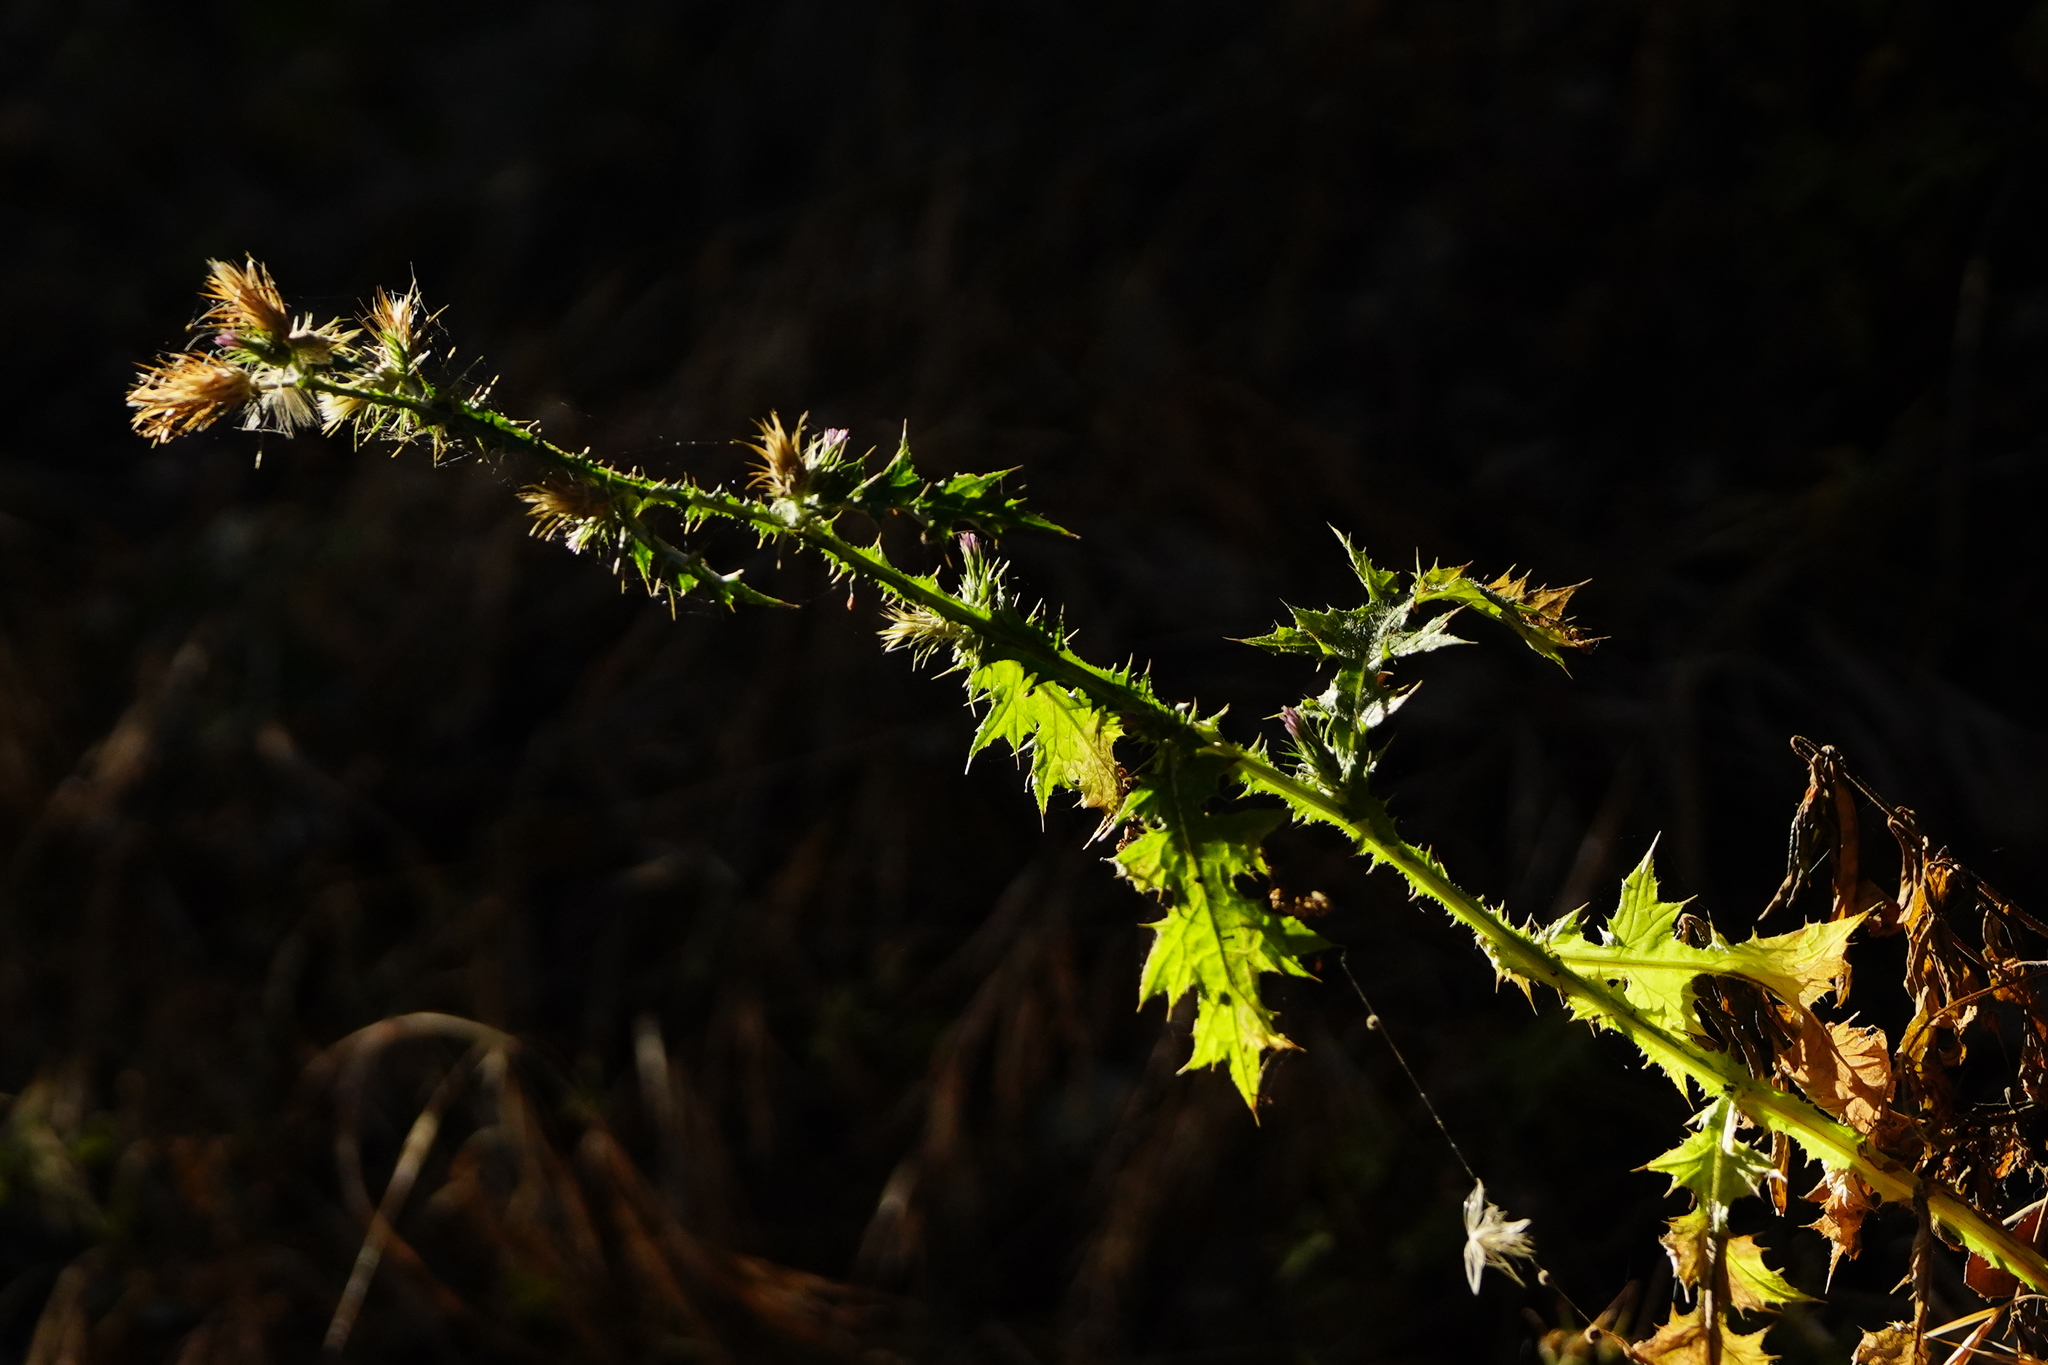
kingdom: Plantae
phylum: Tracheophyta
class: Magnoliopsida
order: Asterales
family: Asteraceae
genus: Carduus
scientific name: Carduus pycnocephalus
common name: Plymouth thistle
